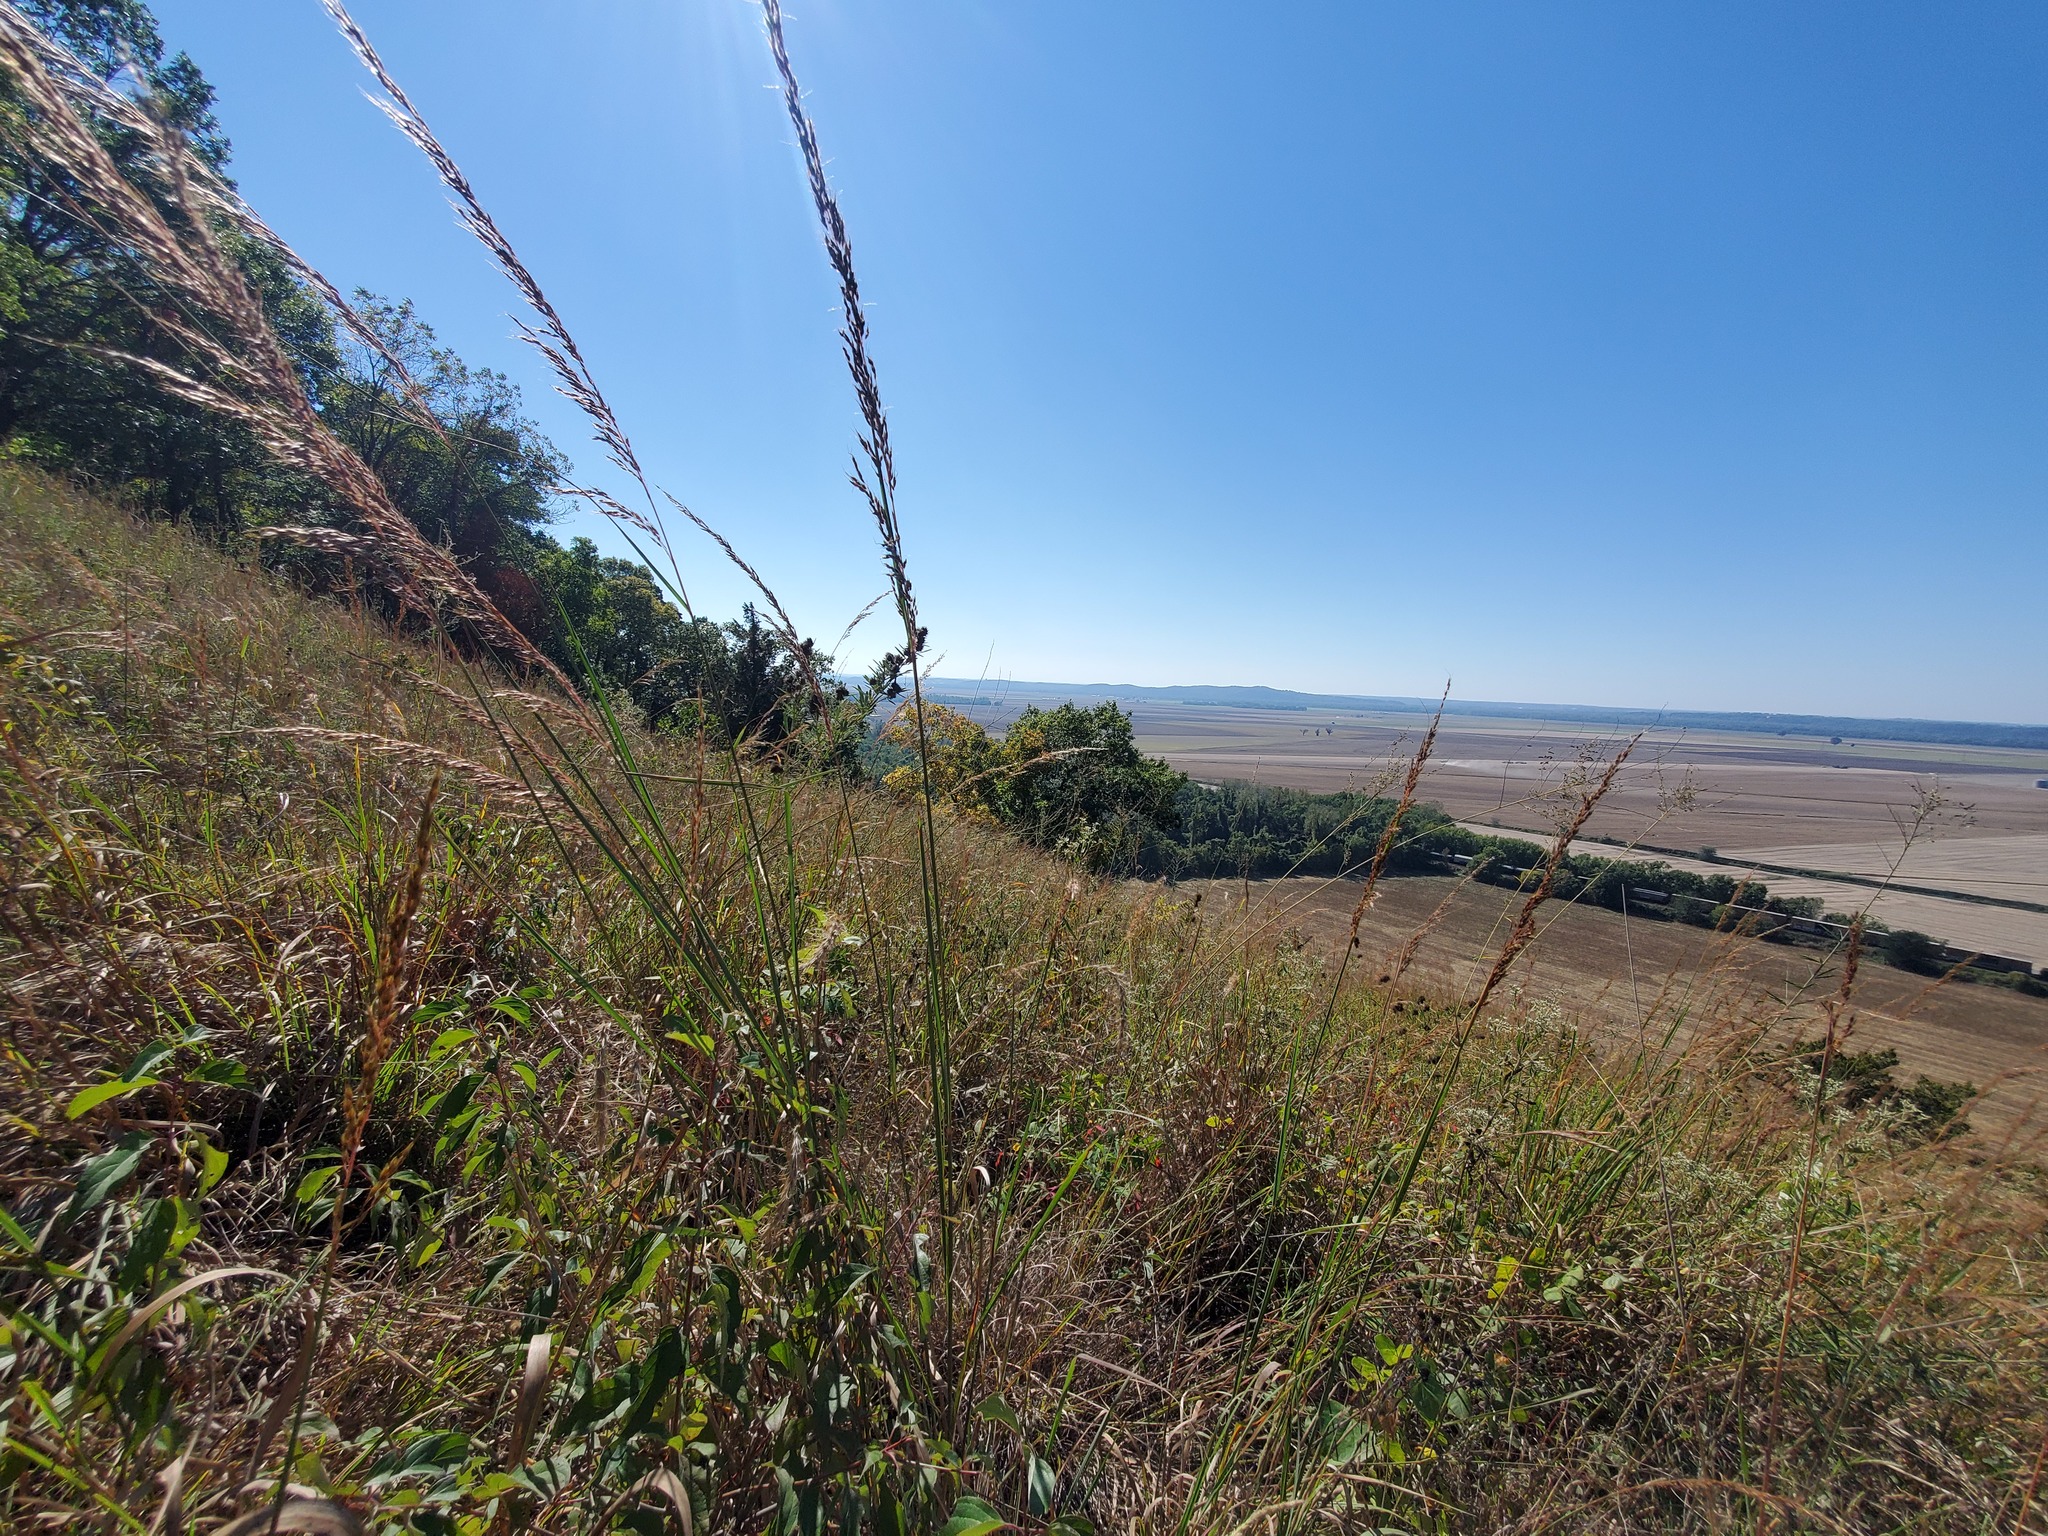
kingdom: Plantae
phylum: Tracheophyta
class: Liliopsida
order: Poales
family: Poaceae
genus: Sorghastrum
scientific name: Sorghastrum nutans
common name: Indian grass
